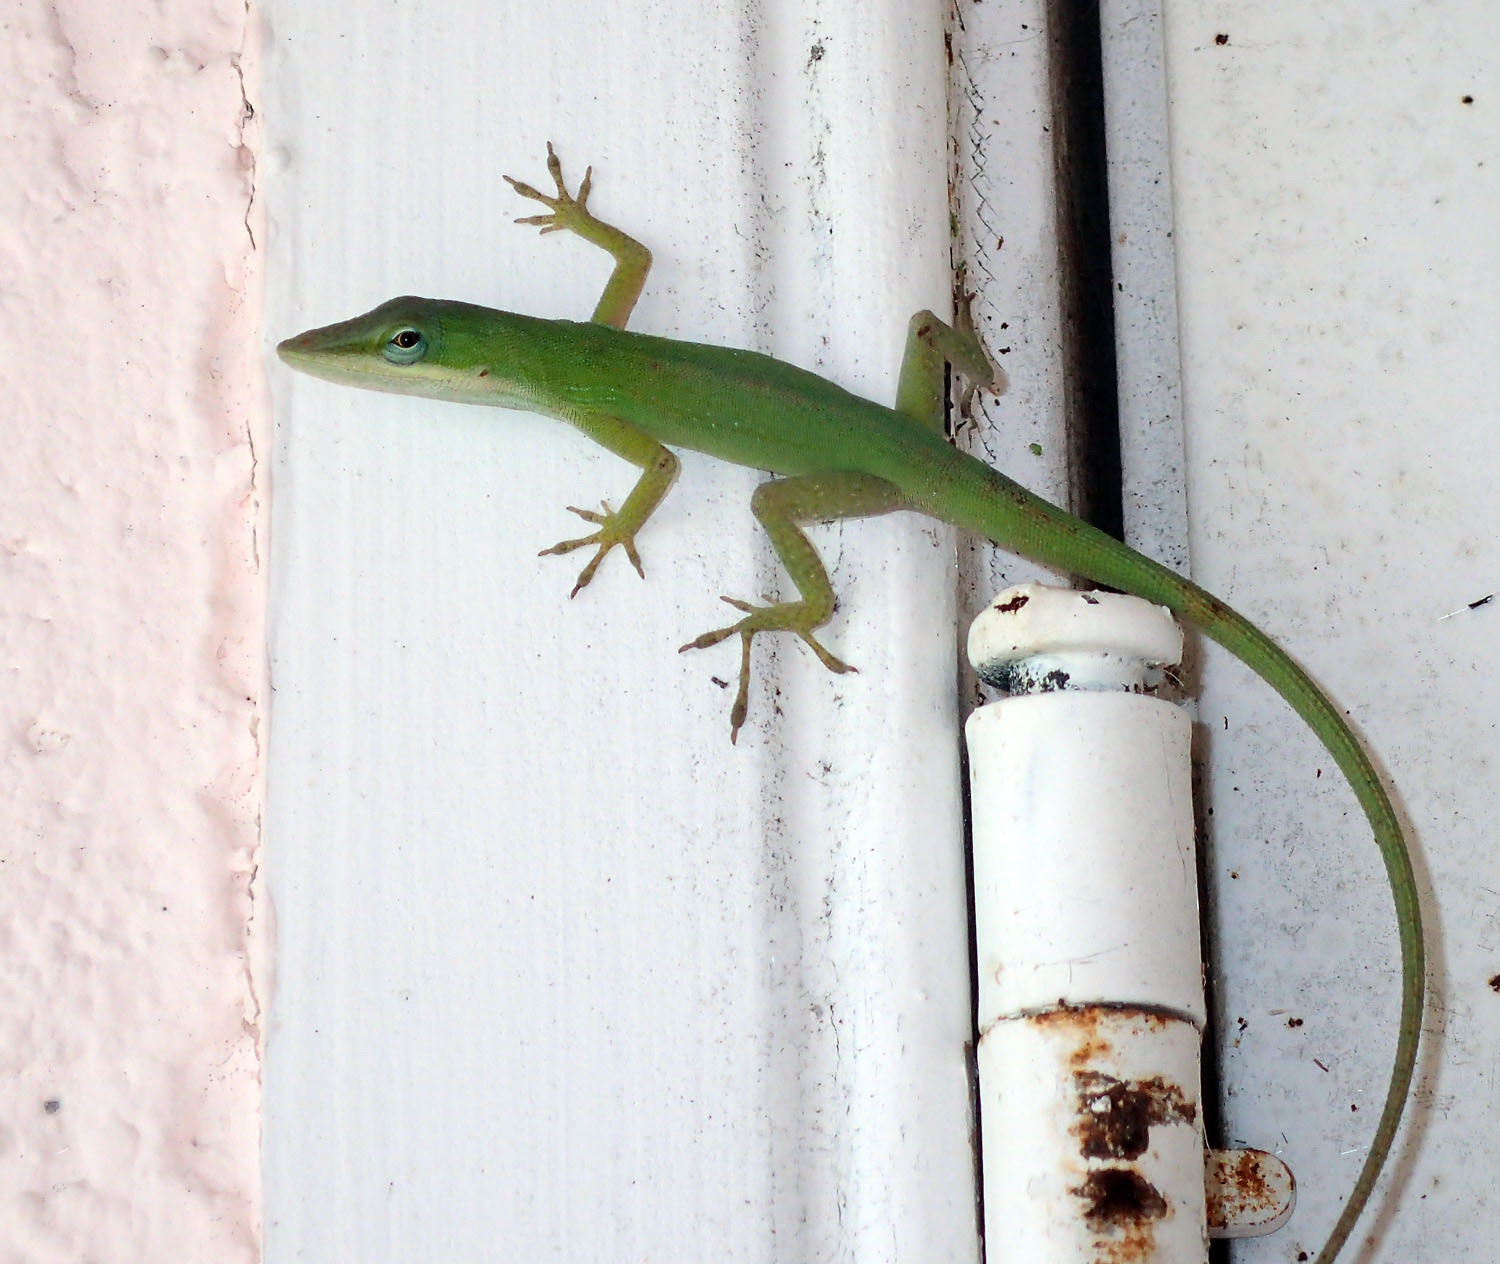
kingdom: Animalia
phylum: Chordata
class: Squamata
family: Dactyloidae
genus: Anolis
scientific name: Anolis carolinensis
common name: Green anole
